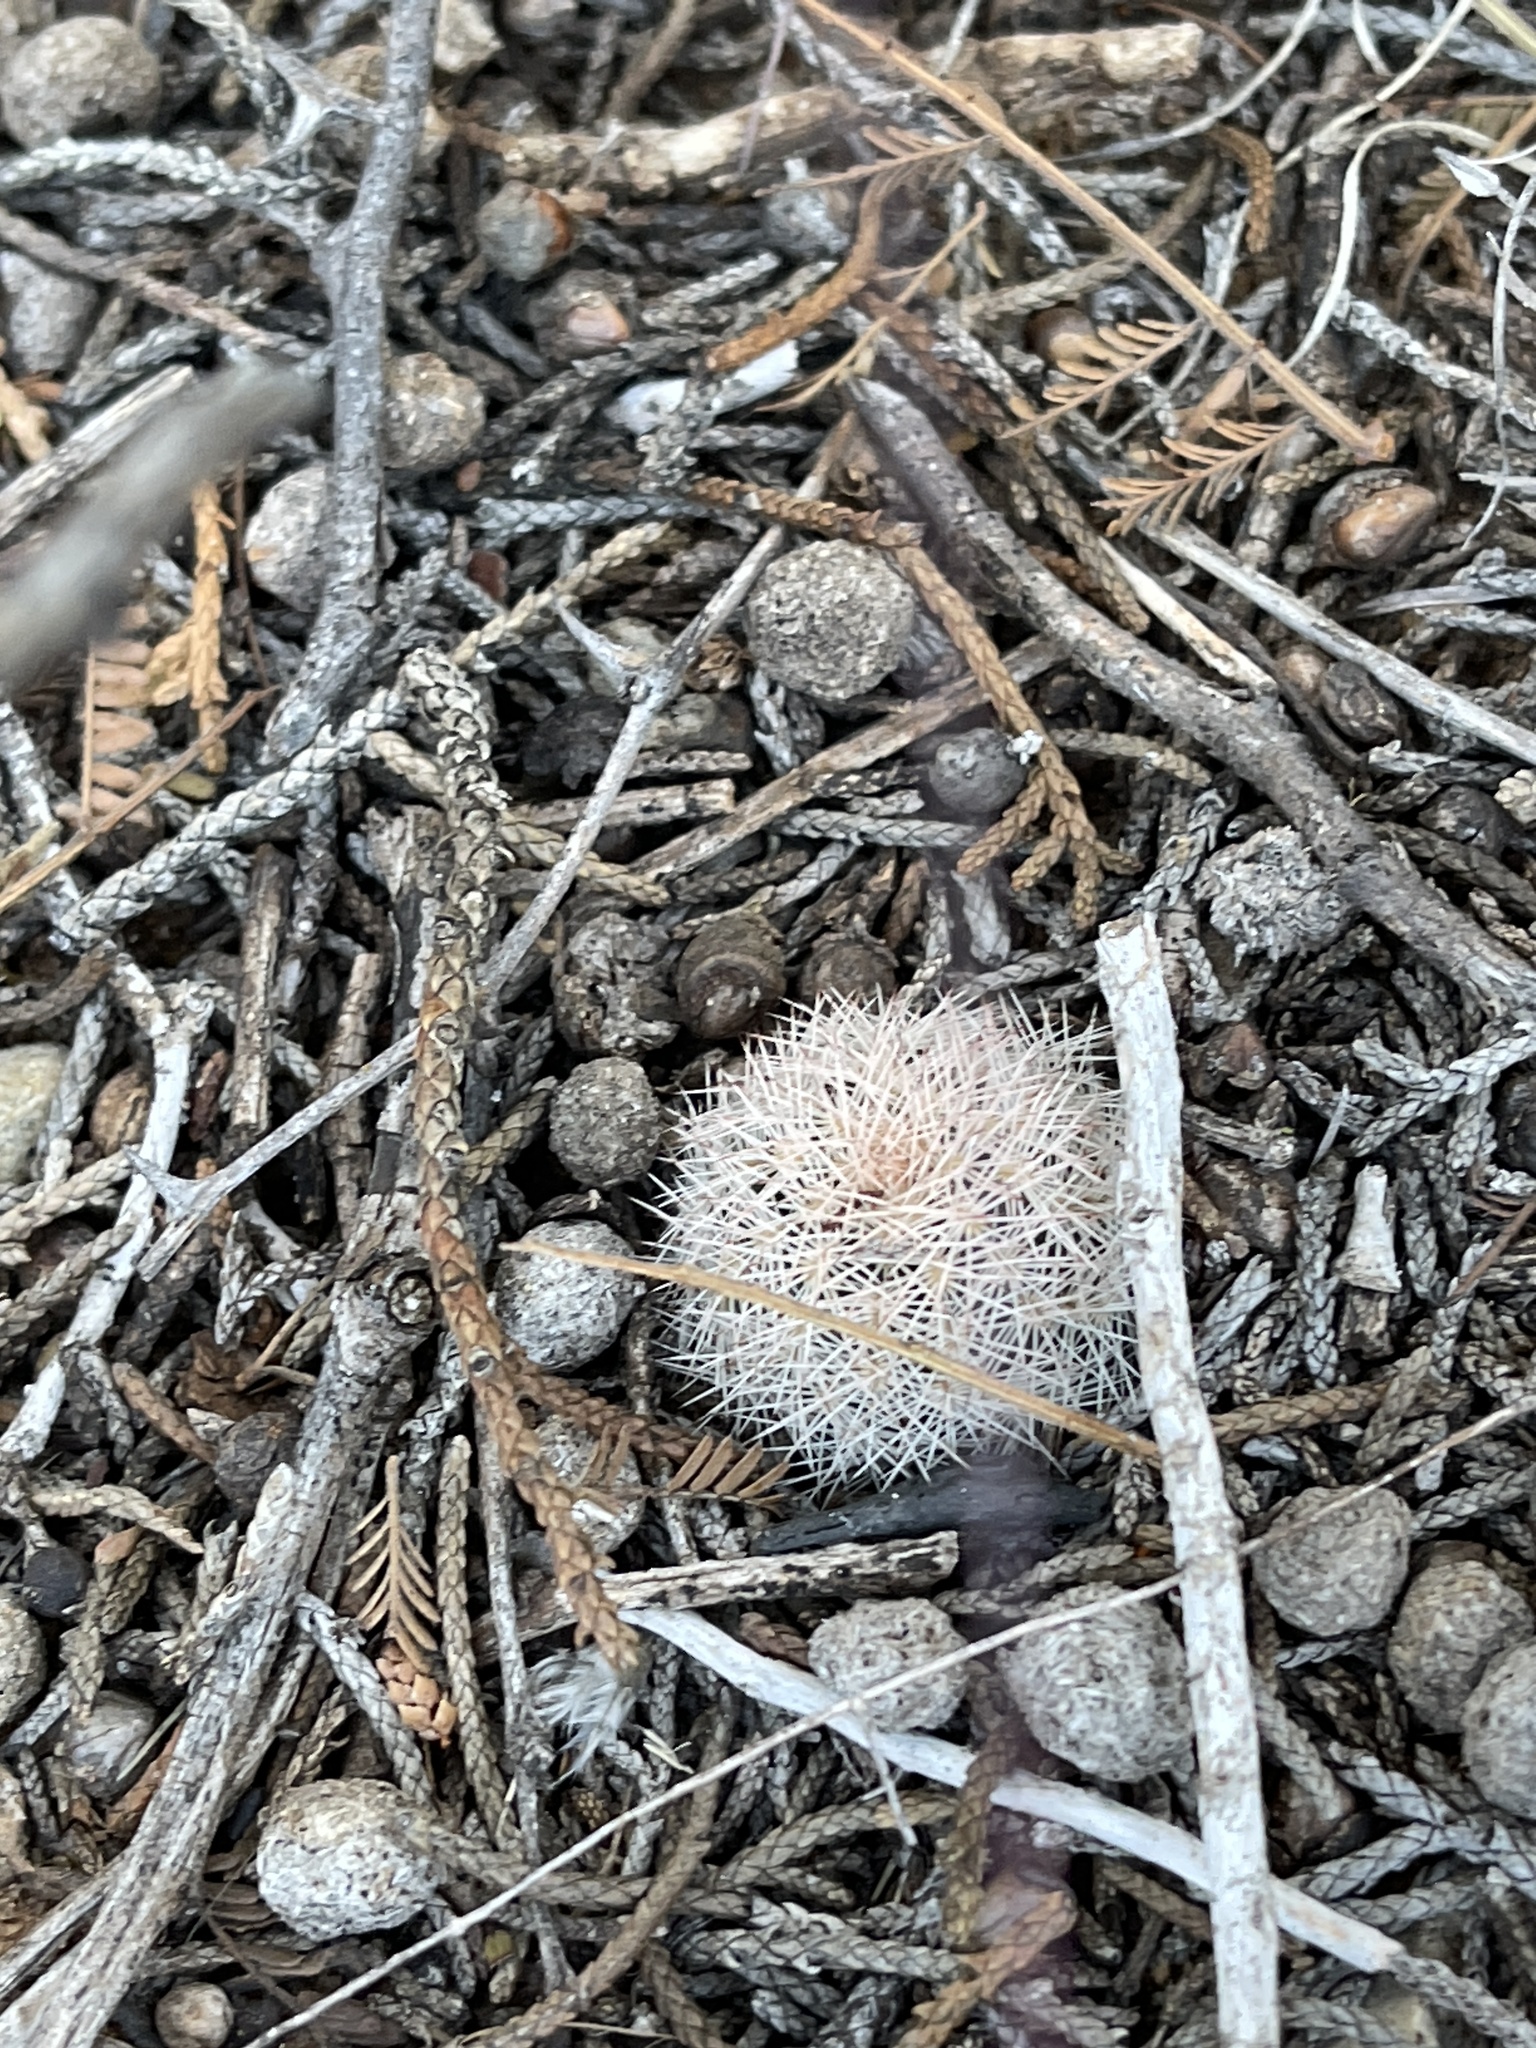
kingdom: Plantae
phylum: Tracheophyta
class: Magnoliopsida
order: Caryophyllales
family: Cactaceae
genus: Echinocereus
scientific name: Echinocereus reichenbachii
